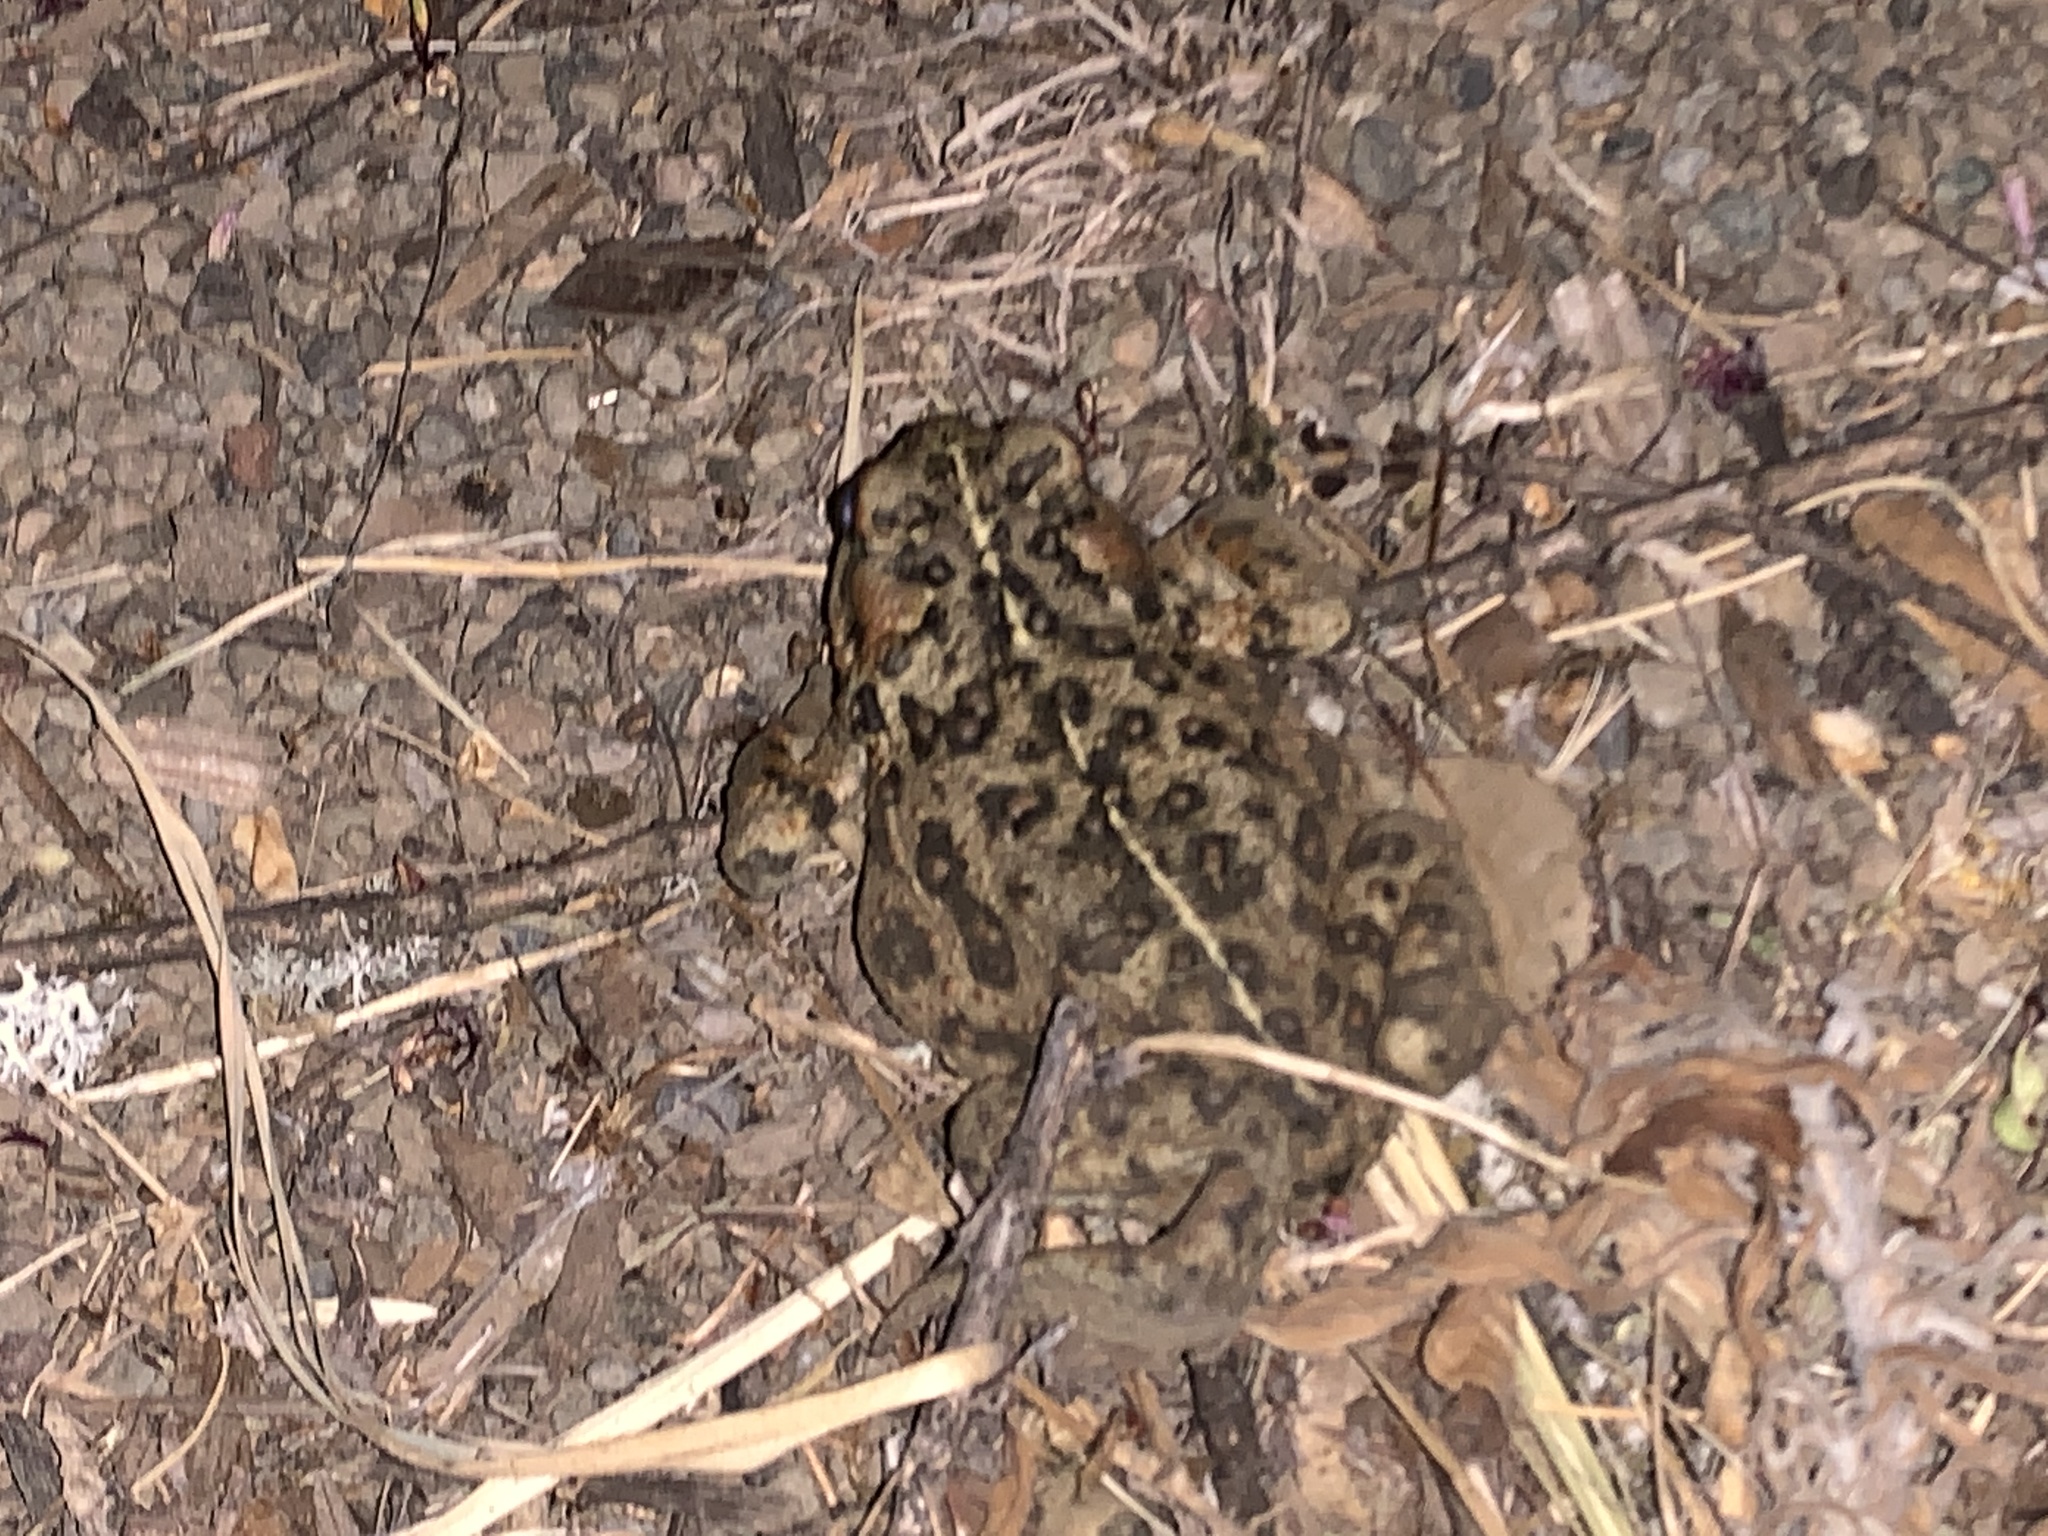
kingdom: Animalia
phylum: Chordata
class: Amphibia
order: Anura
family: Bufonidae
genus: Anaxyrus
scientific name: Anaxyrus boreas
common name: Western toad
